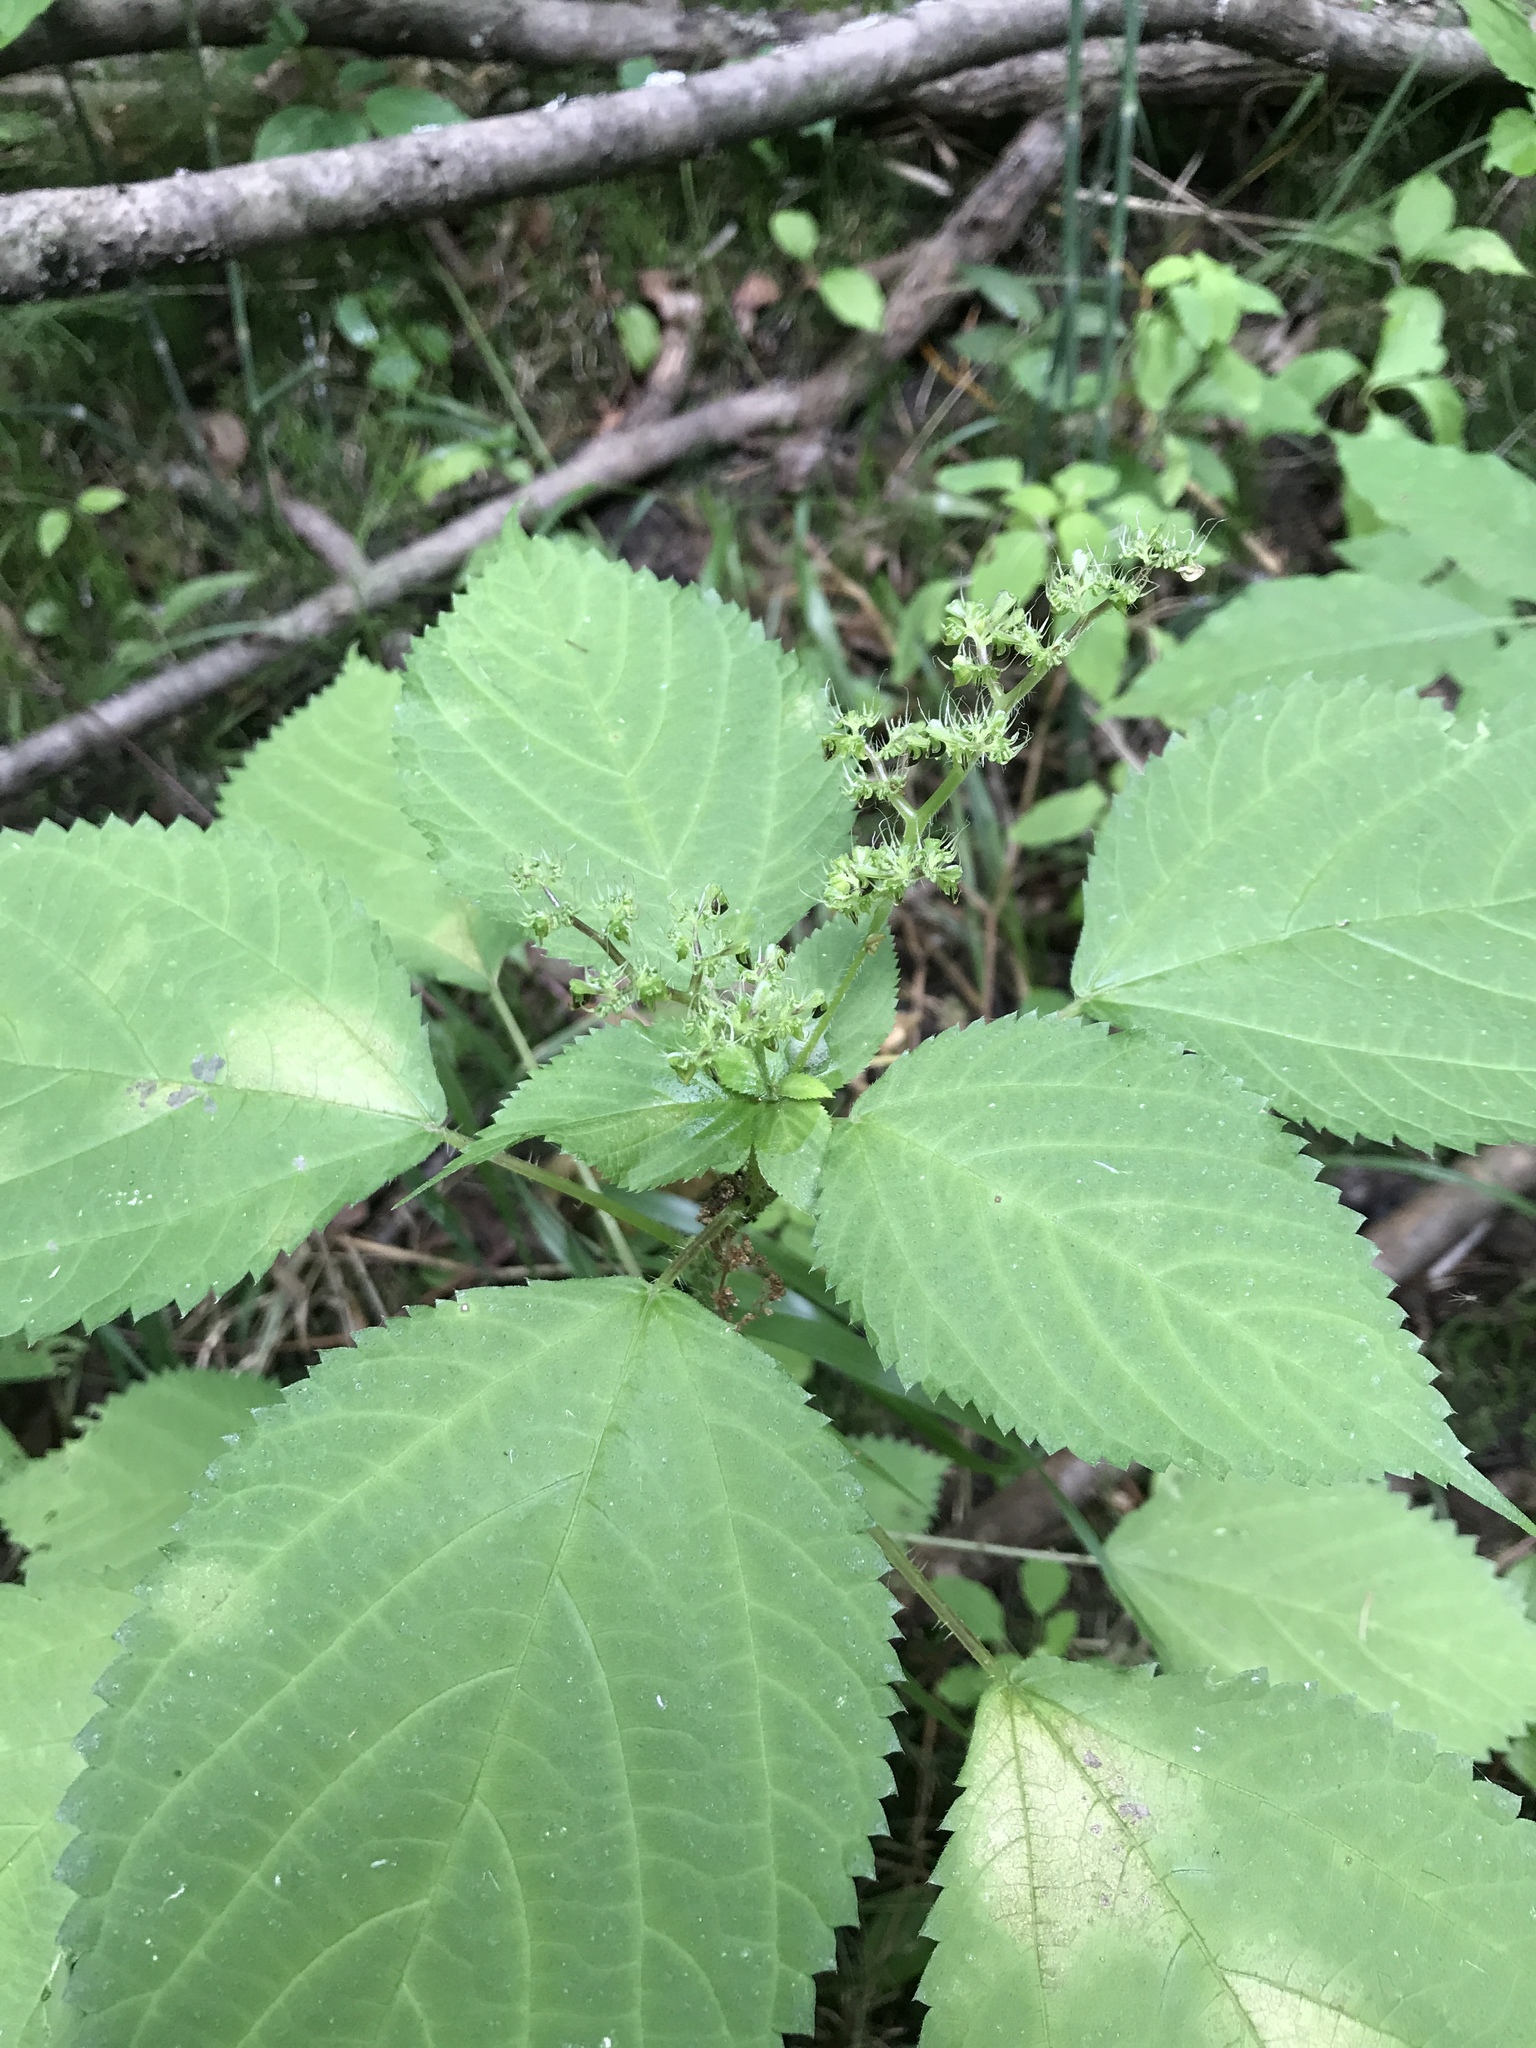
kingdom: Plantae
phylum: Tracheophyta
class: Magnoliopsida
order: Rosales
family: Urticaceae
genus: Laportea
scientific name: Laportea canadensis
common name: Canada nettle
